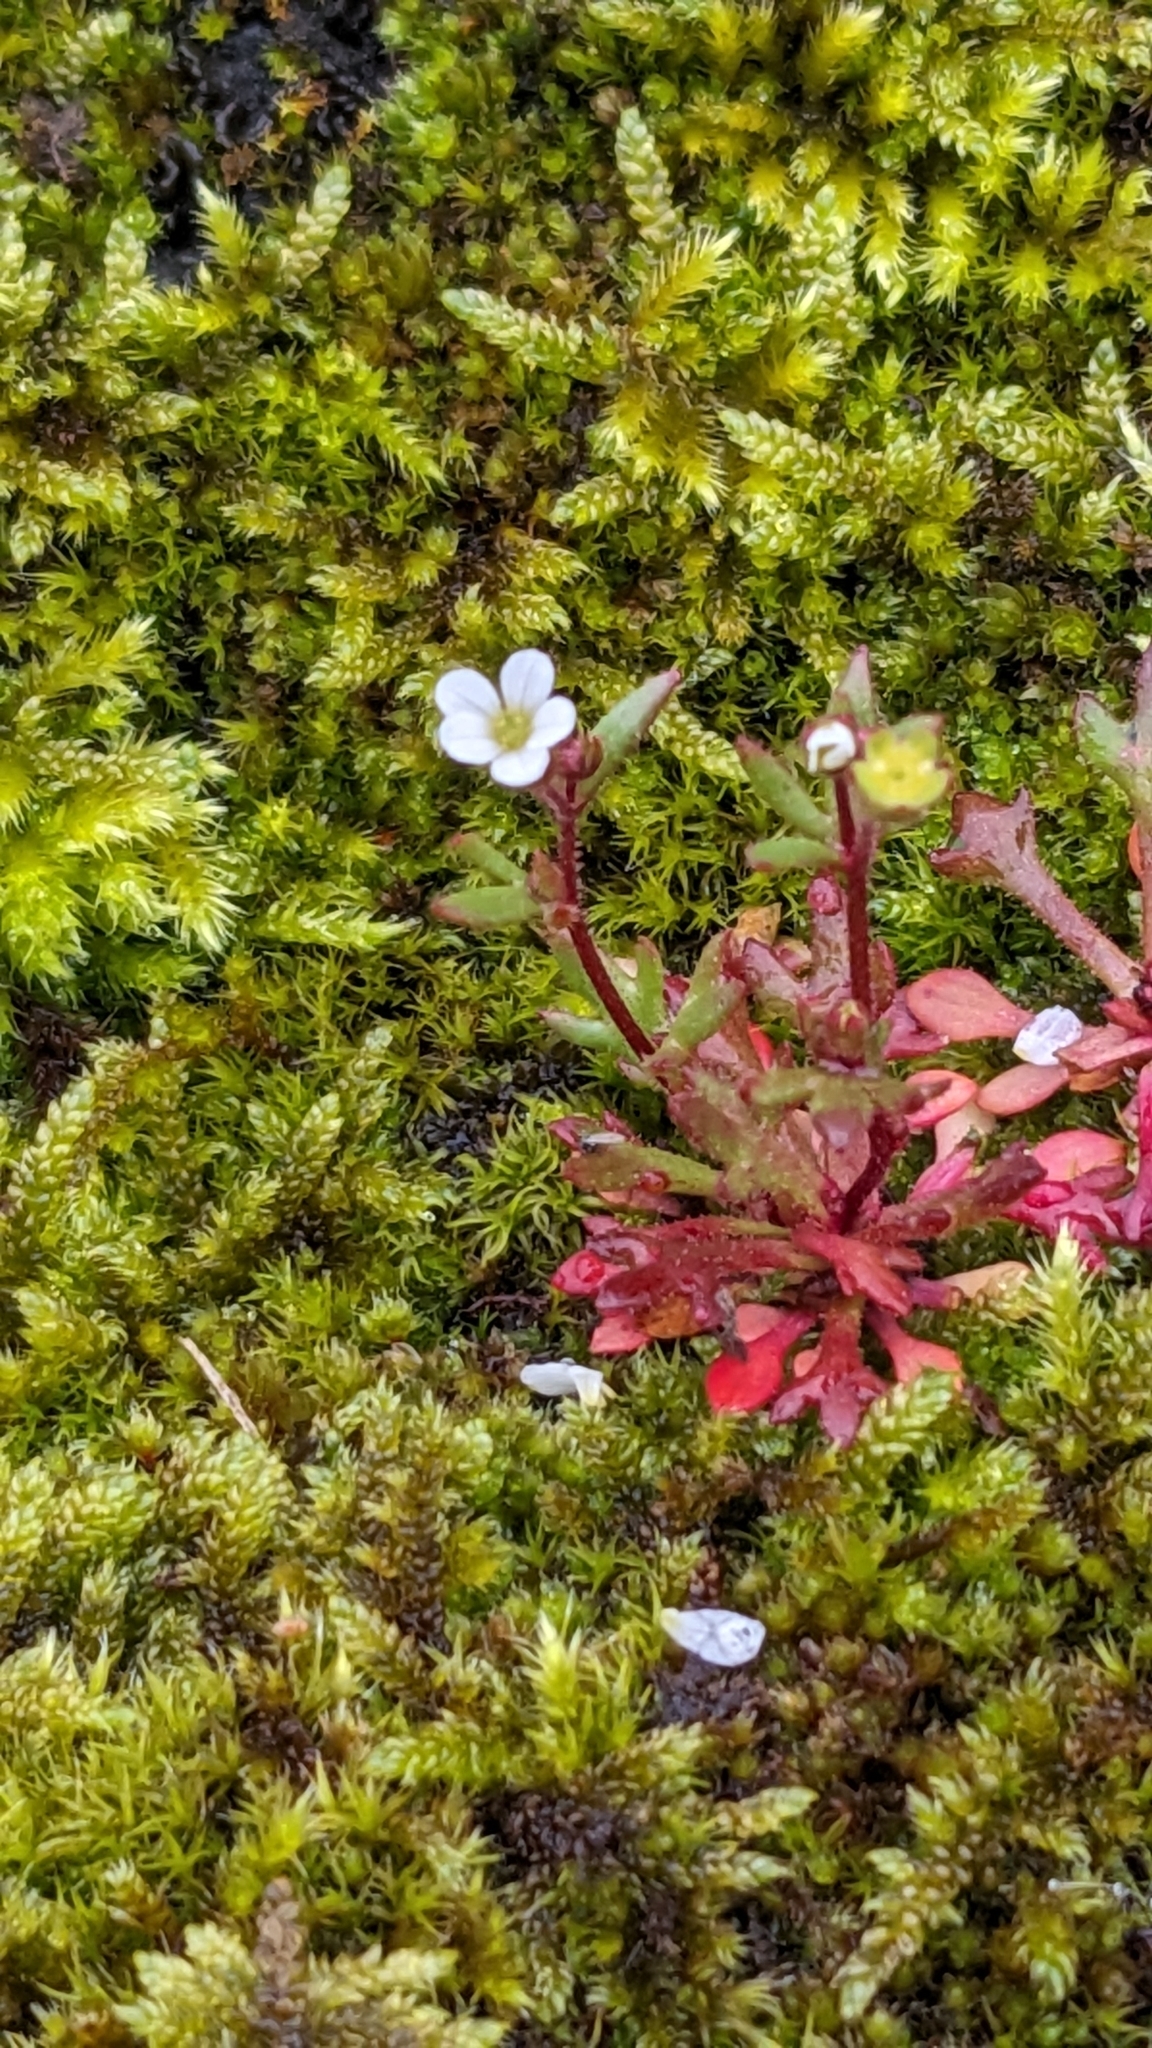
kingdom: Plantae
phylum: Tracheophyta
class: Magnoliopsida
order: Saxifragales
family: Saxifragaceae
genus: Saxifraga
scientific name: Saxifraga tridactylites
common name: Rue-leaved saxifrage
